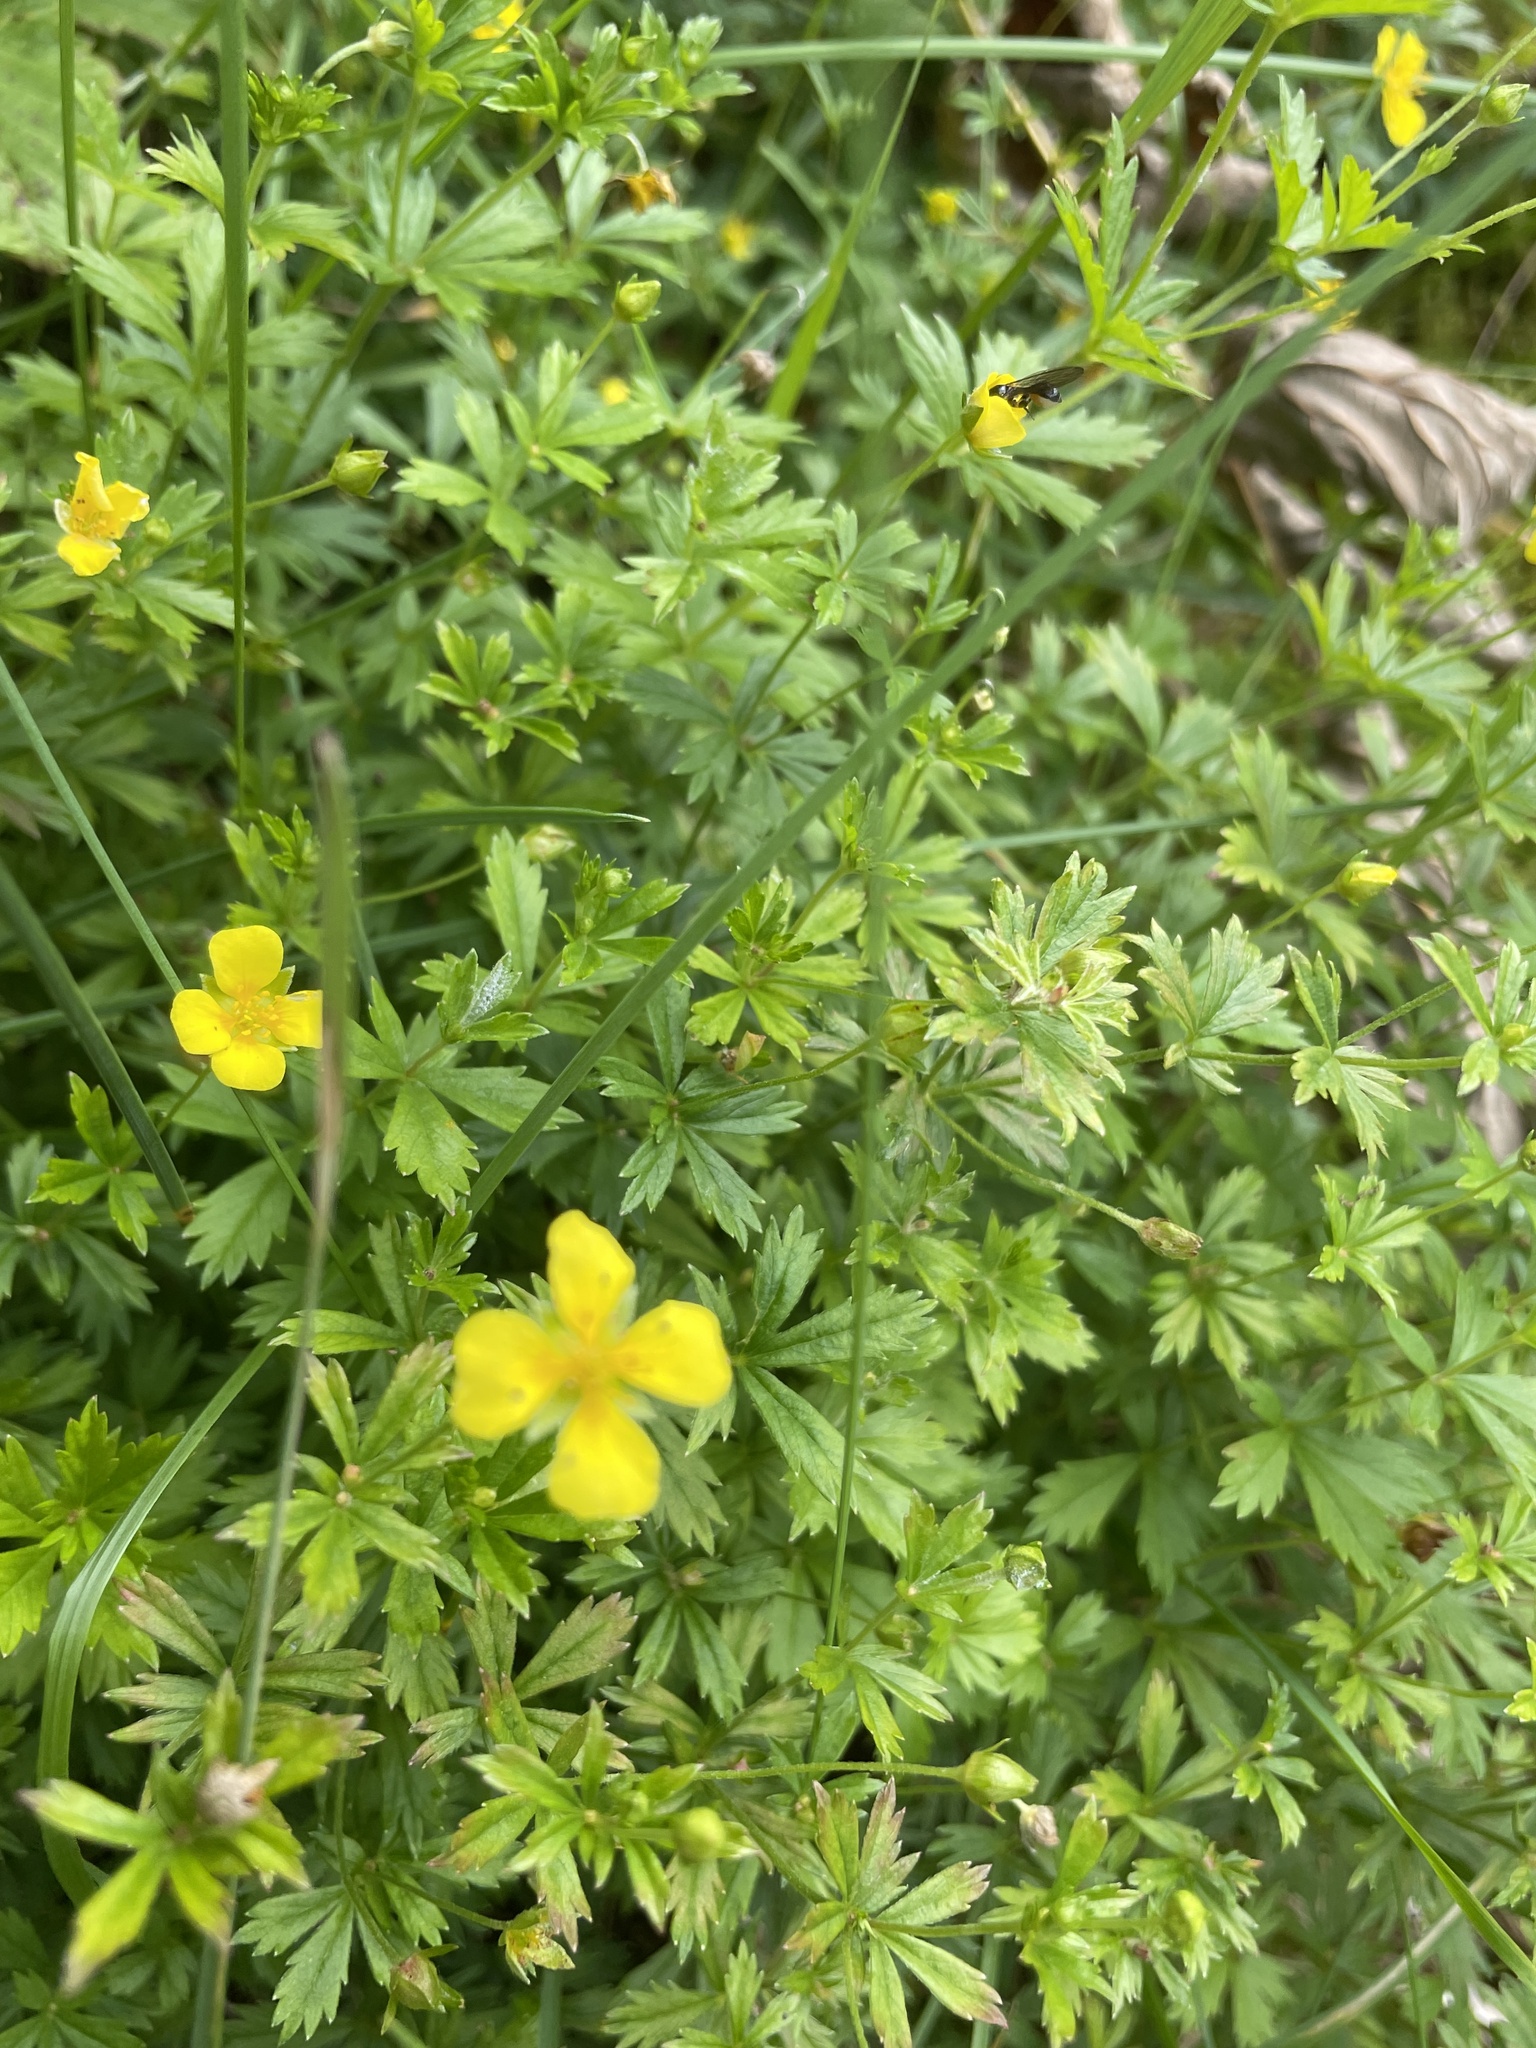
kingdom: Plantae
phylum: Tracheophyta
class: Magnoliopsida
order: Rosales
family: Rosaceae
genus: Potentilla
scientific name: Potentilla erecta
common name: Tormentil
